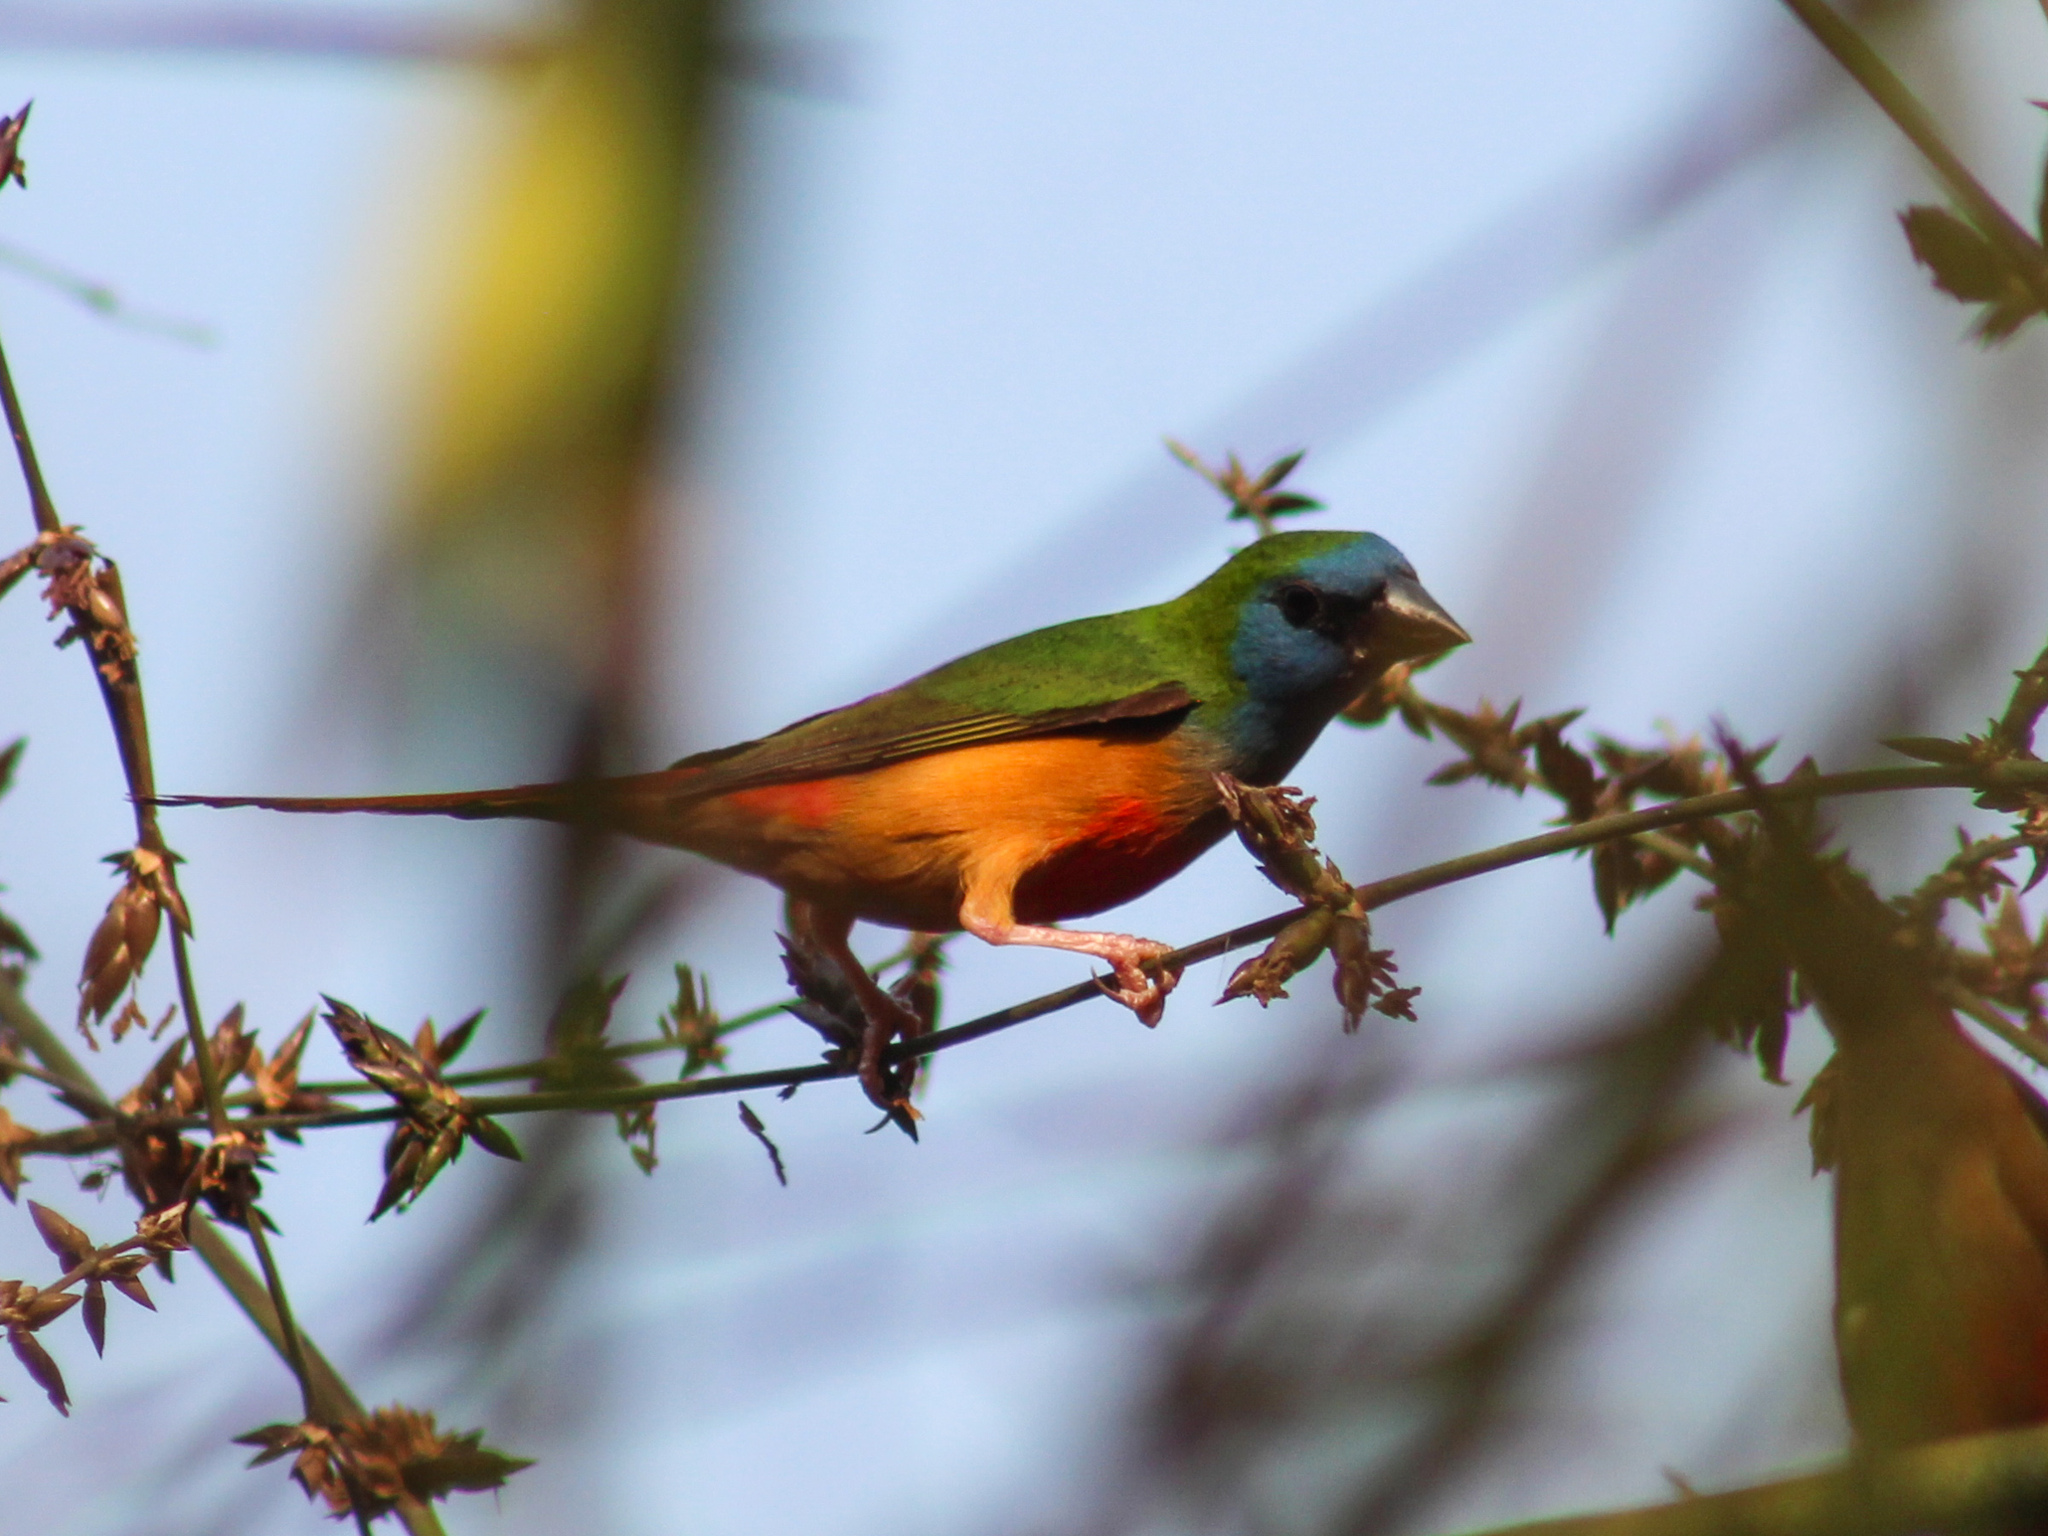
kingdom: Animalia
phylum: Chordata
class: Aves
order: Passeriformes
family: Estrildidae
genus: Erythrura
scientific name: Erythrura prasina
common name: Pin-tailed parrotfinch
